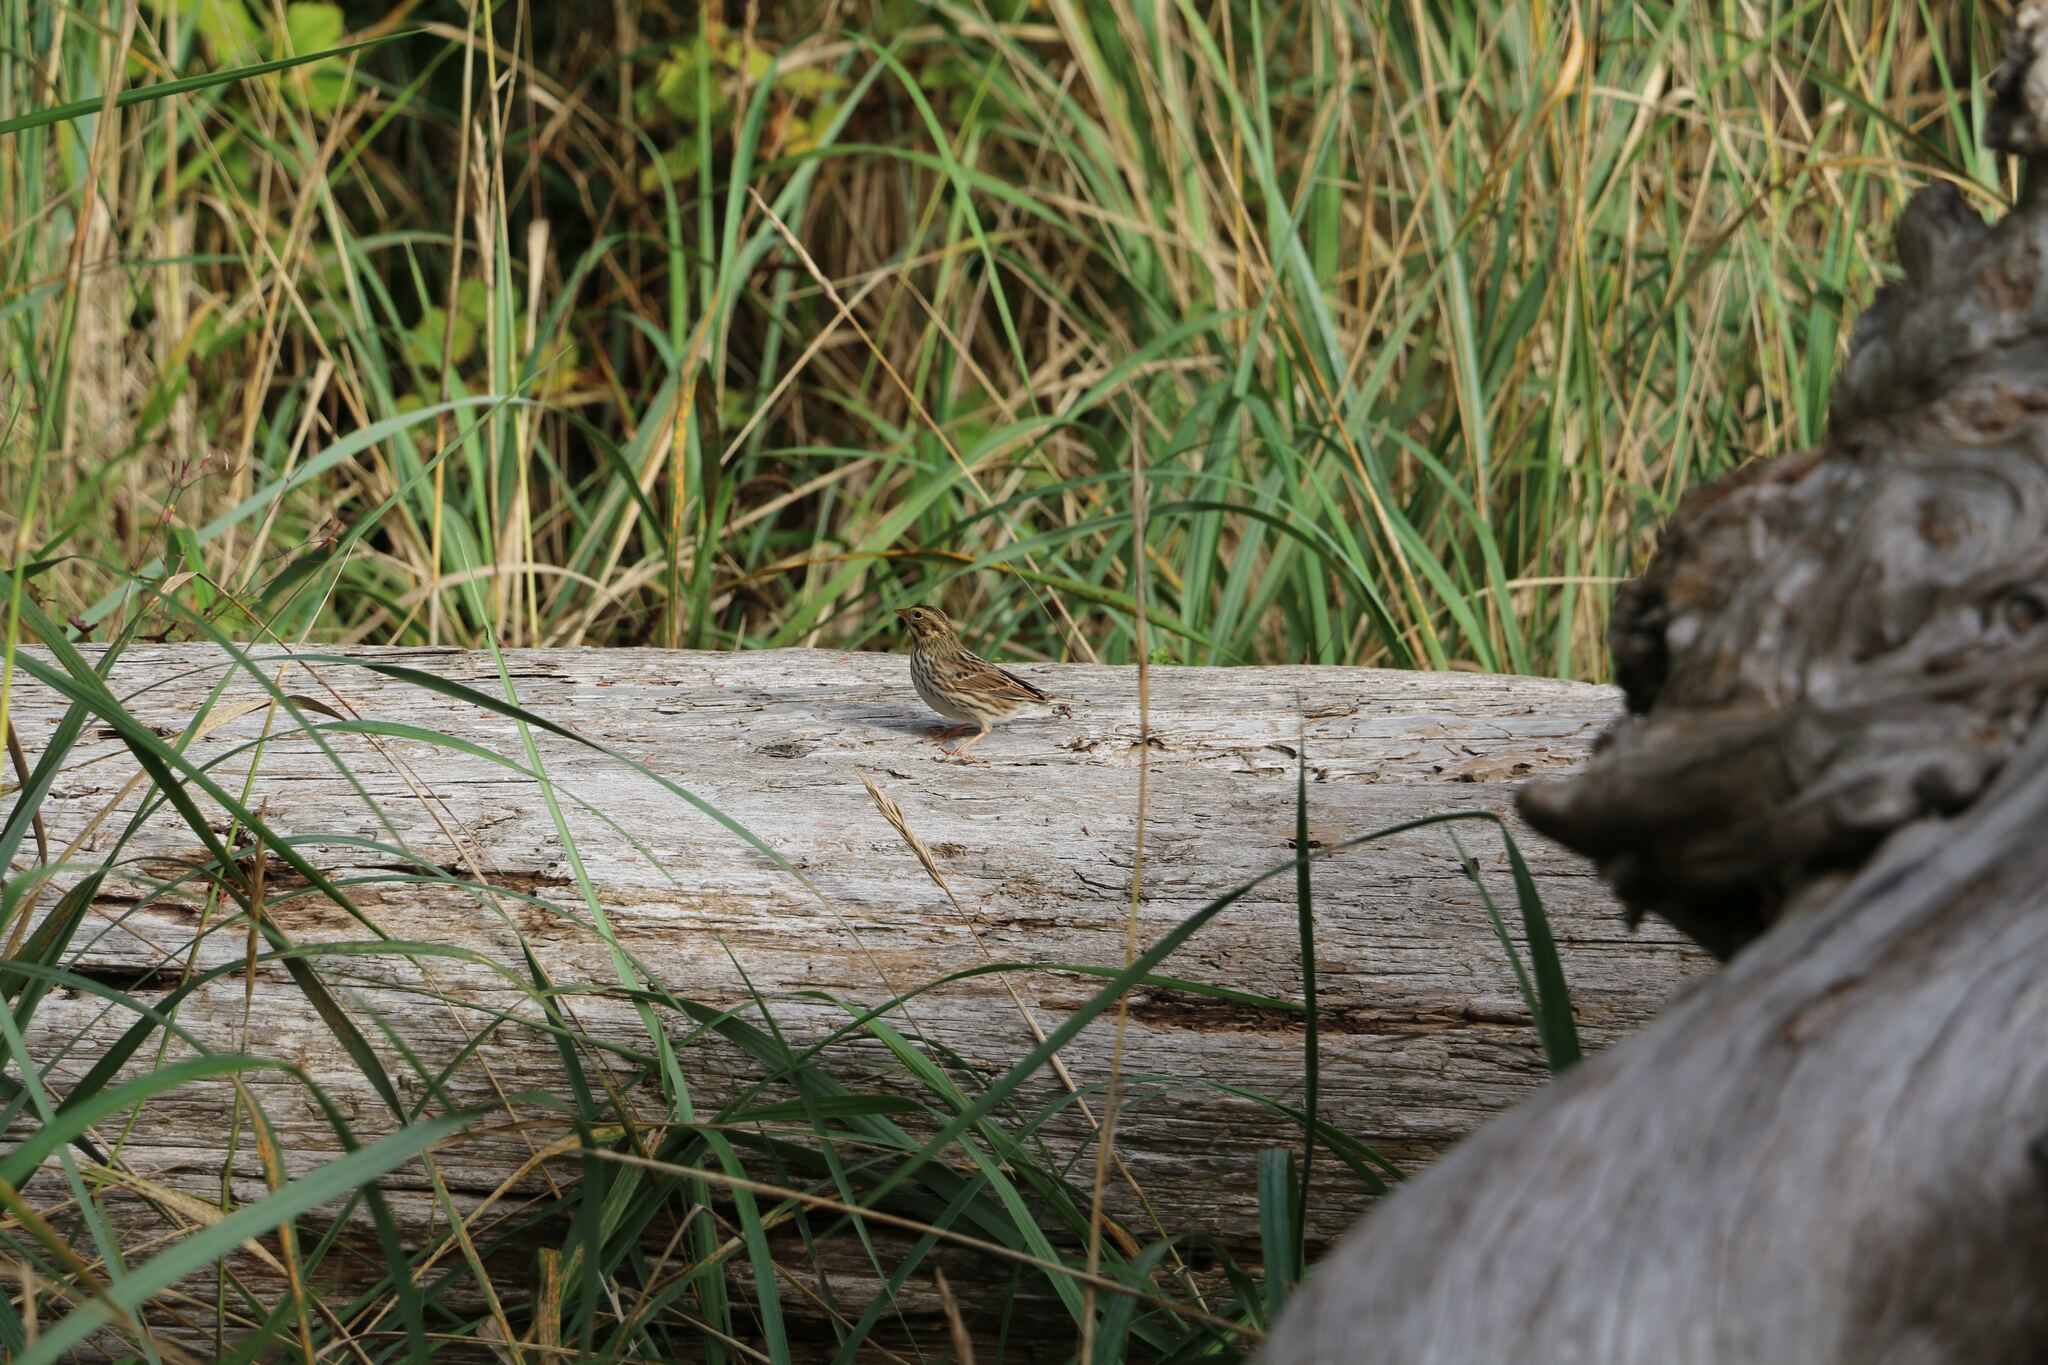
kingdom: Animalia
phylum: Chordata
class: Aves
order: Passeriformes
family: Passerellidae
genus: Passerculus
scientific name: Passerculus sandwichensis
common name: Savannah sparrow
